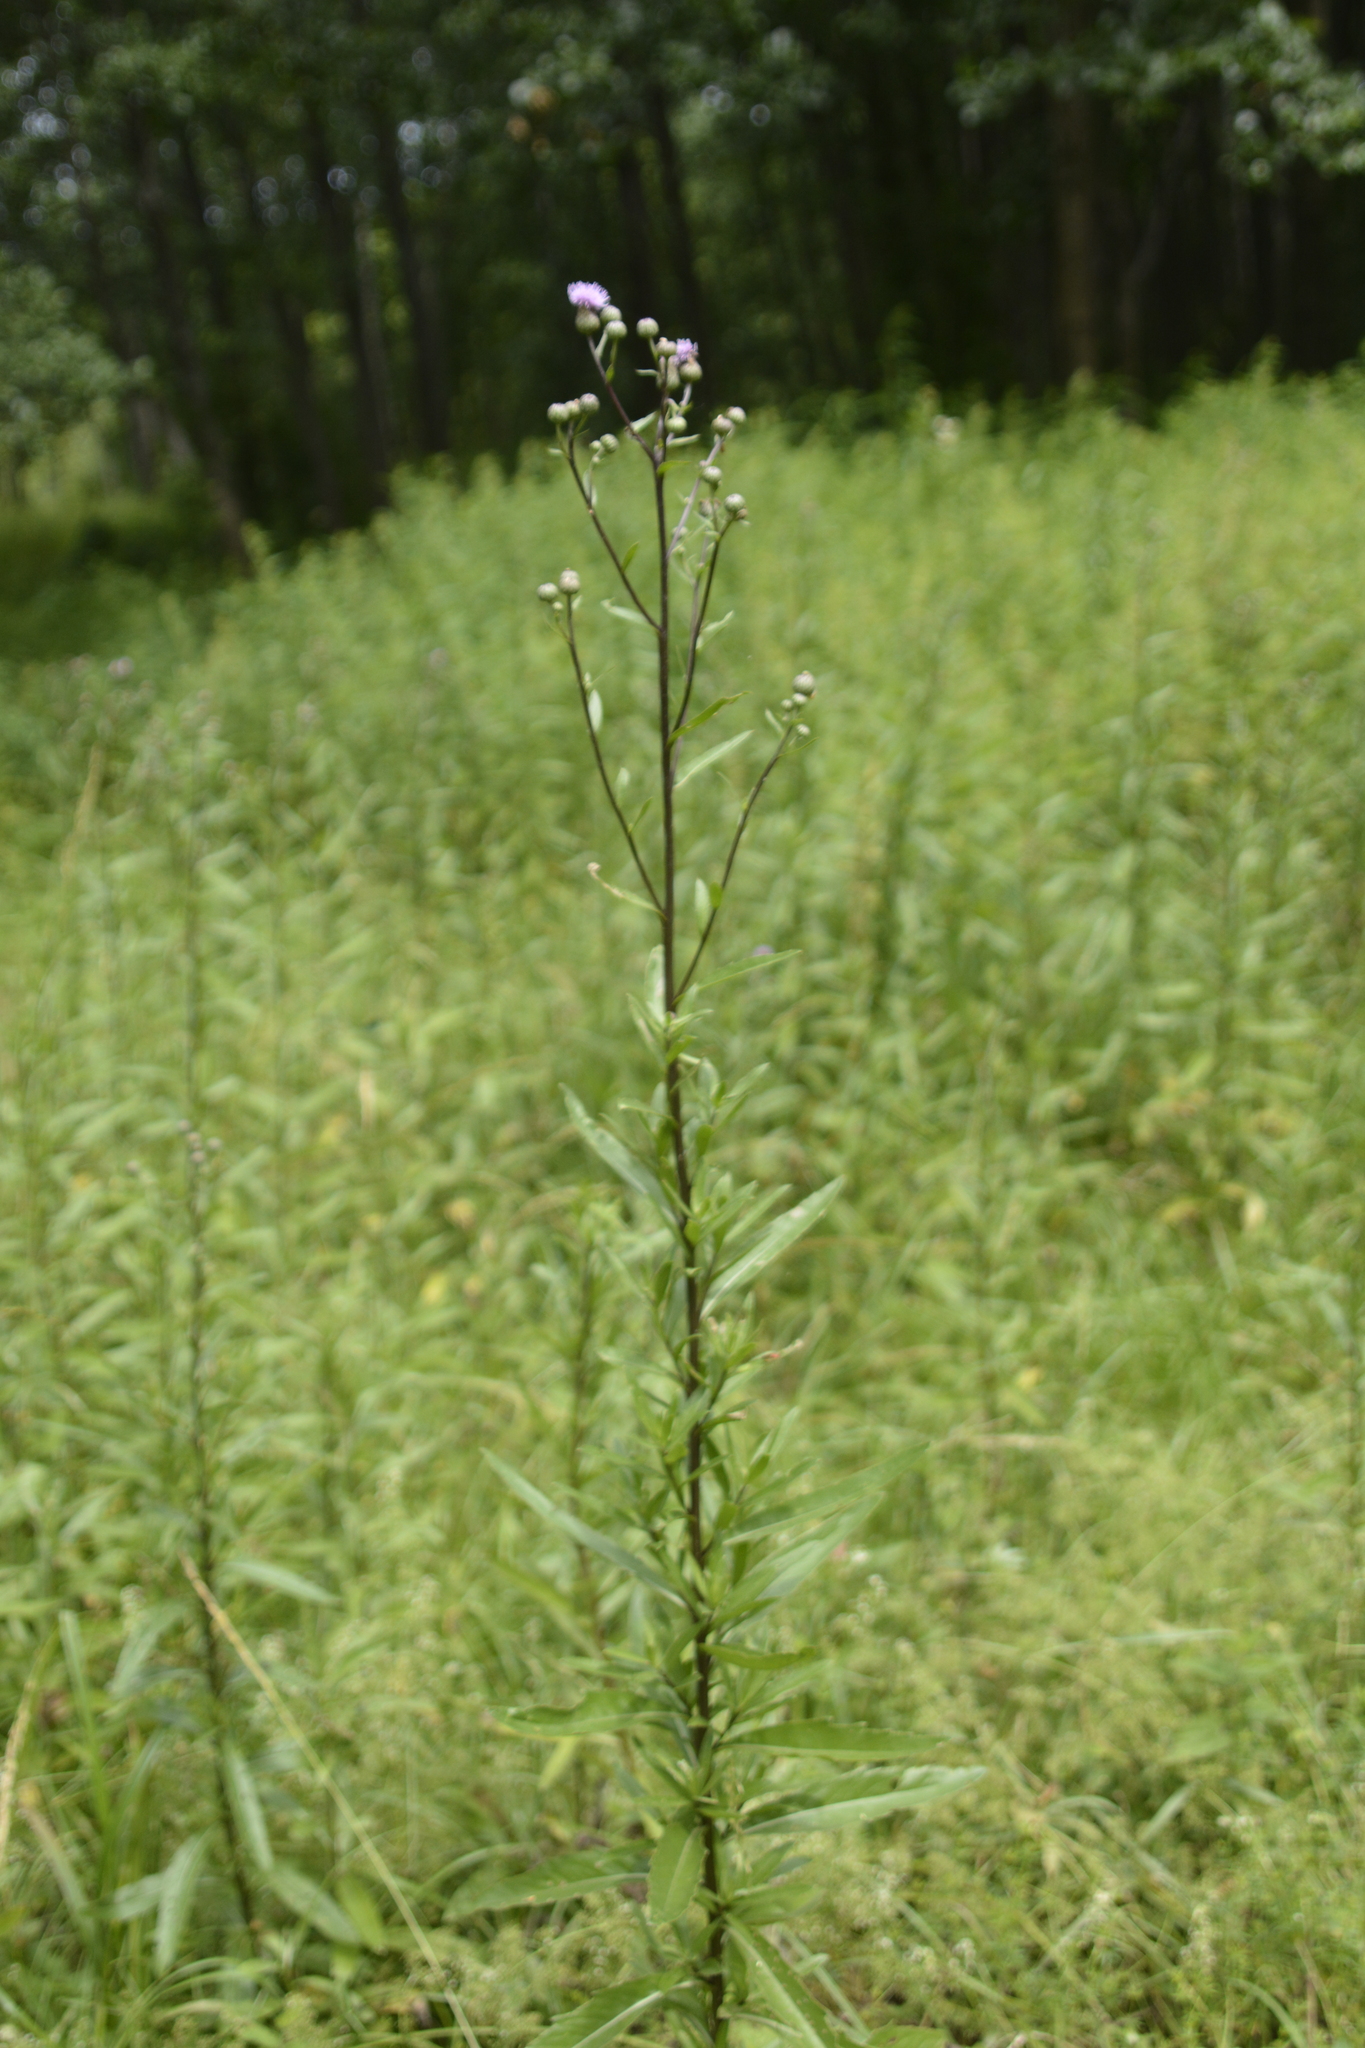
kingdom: Plantae
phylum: Tracheophyta
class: Magnoliopsida
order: Asterales
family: Asteraceae
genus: Cirsium
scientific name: Cirsium arvense
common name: Creeping thistle
